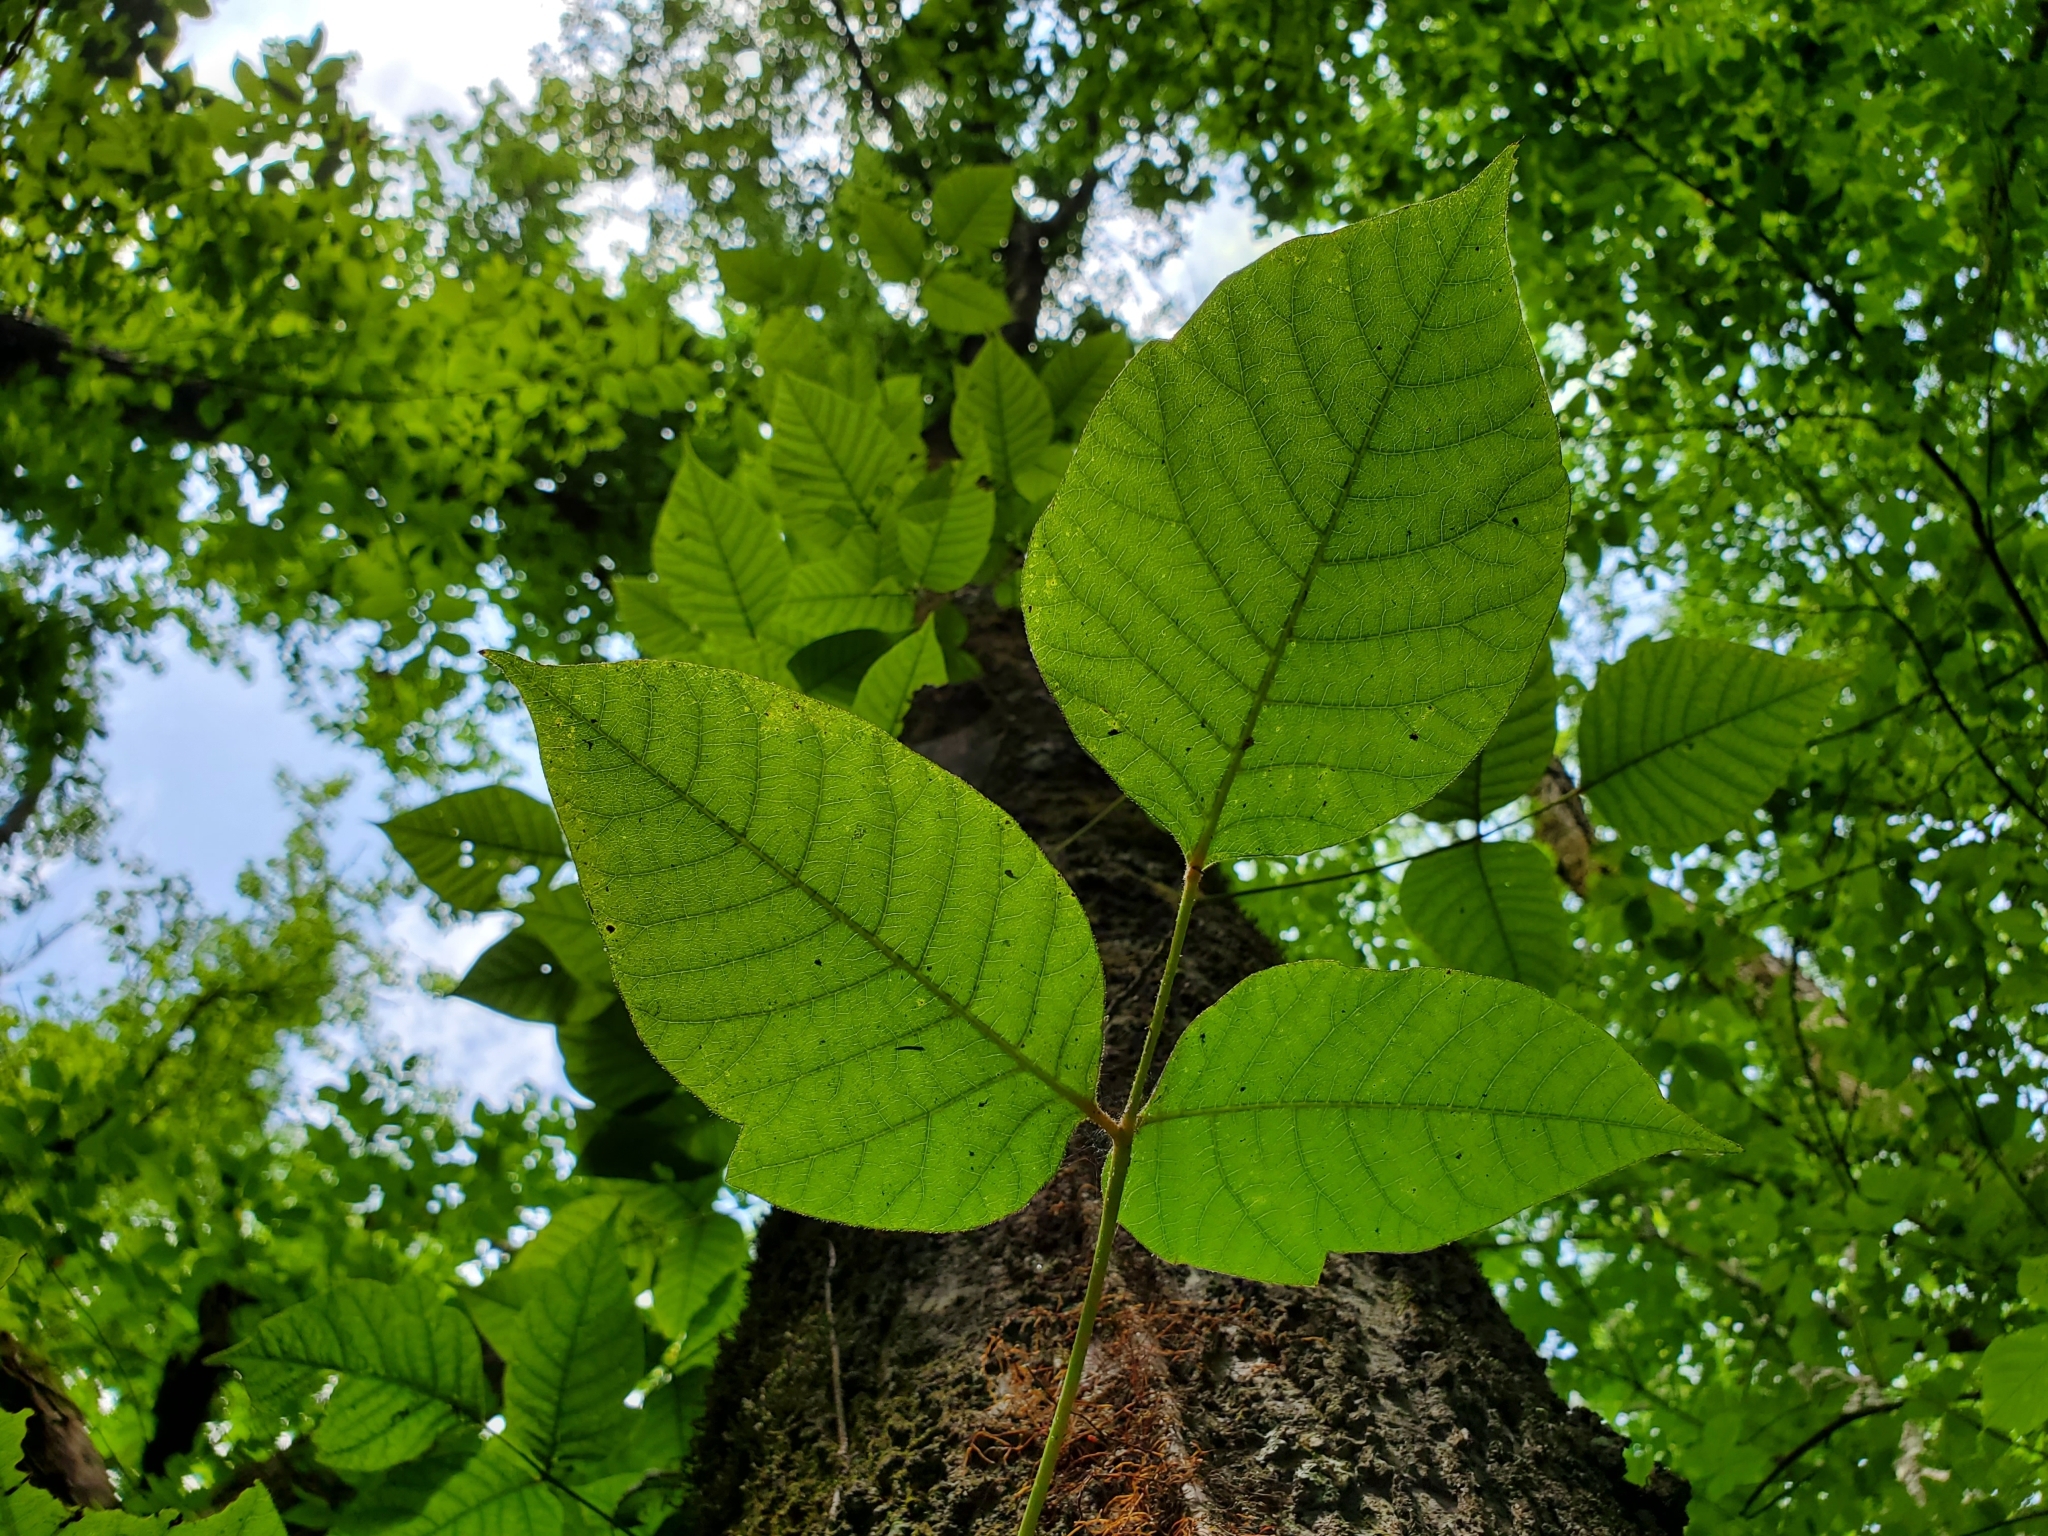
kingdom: Plantae
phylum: Tracheophyta
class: Magnoliopsida
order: Sapindales
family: Anacardiaceae
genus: Toxicodendron
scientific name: Toxicodendron radicans
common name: Poison ivy
